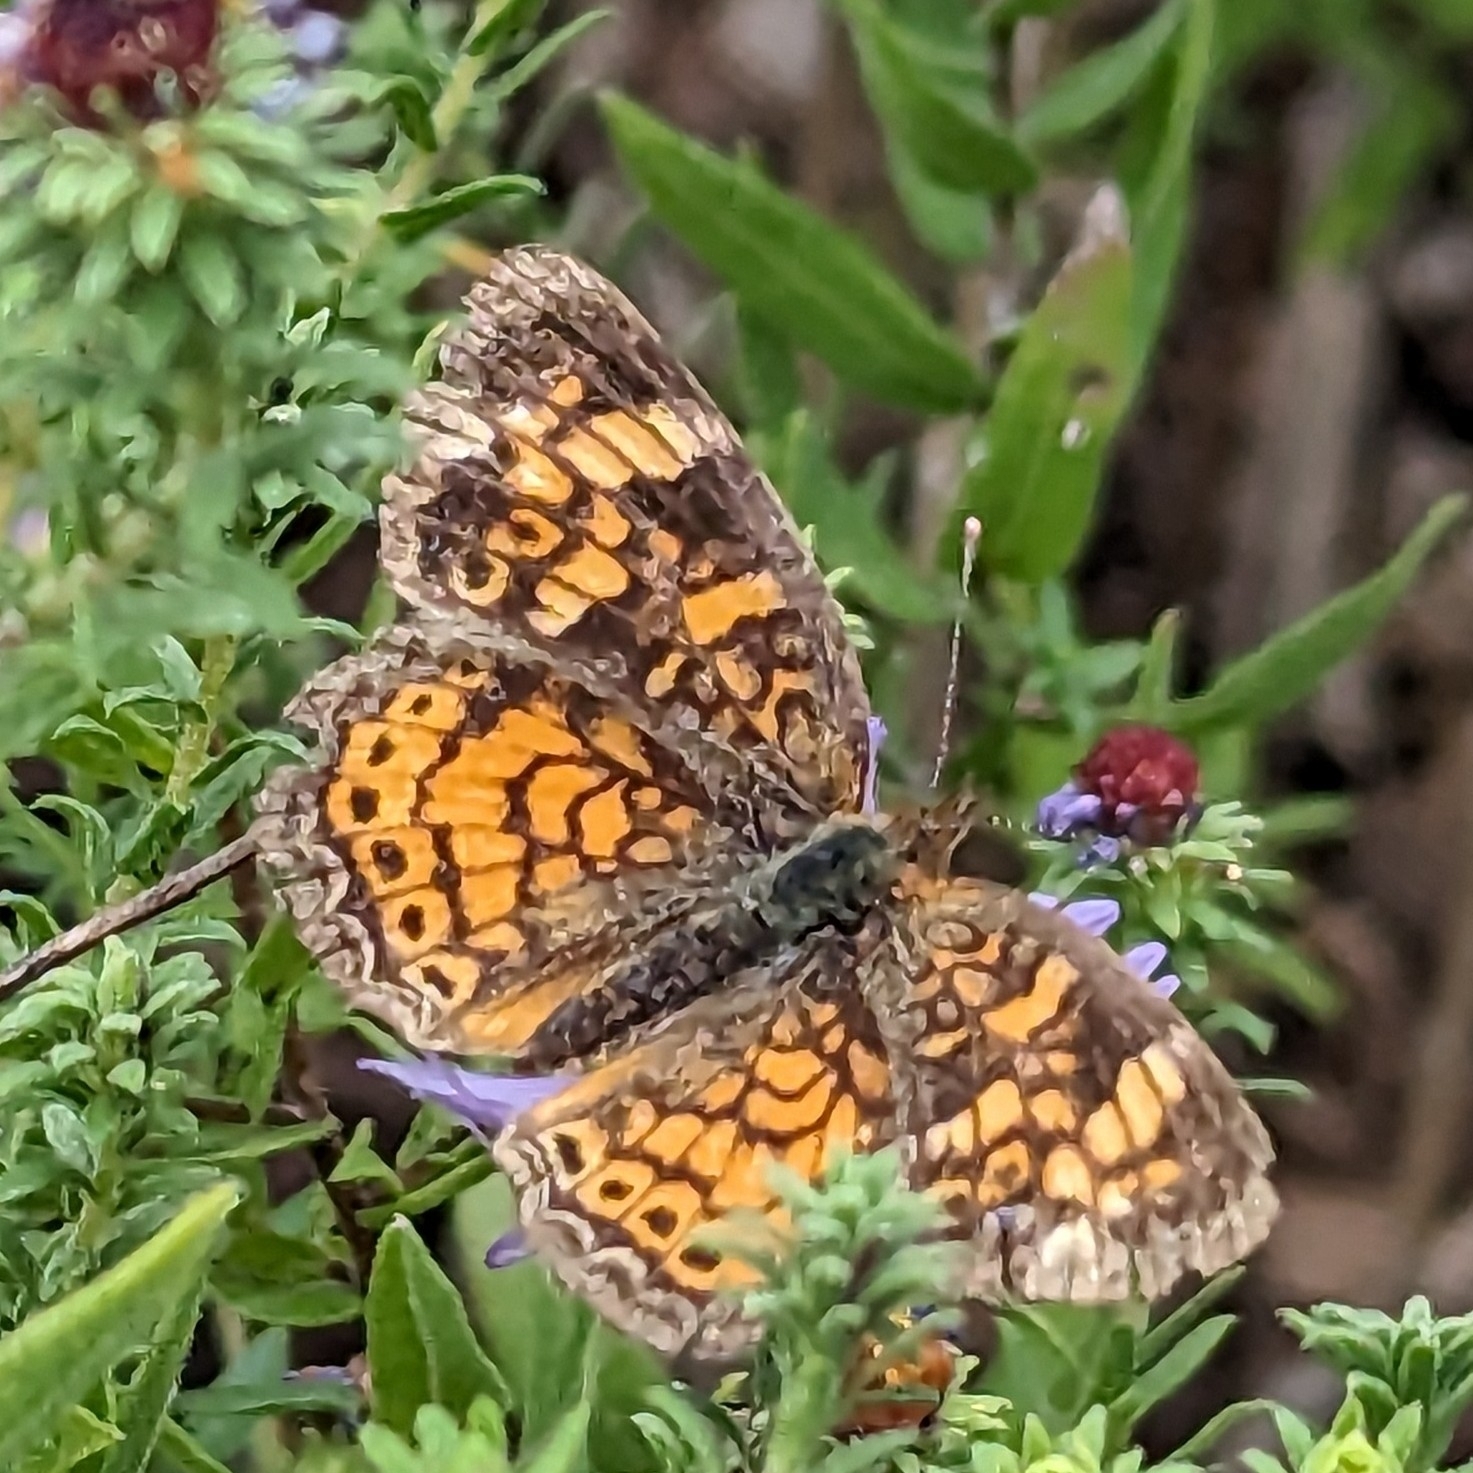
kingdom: Animalia
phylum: Arthropoda
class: Insecta
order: Lepidoptera
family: Nymphalidae
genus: Phyciodes
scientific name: Phyciodes tharos
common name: Pearl crescent
